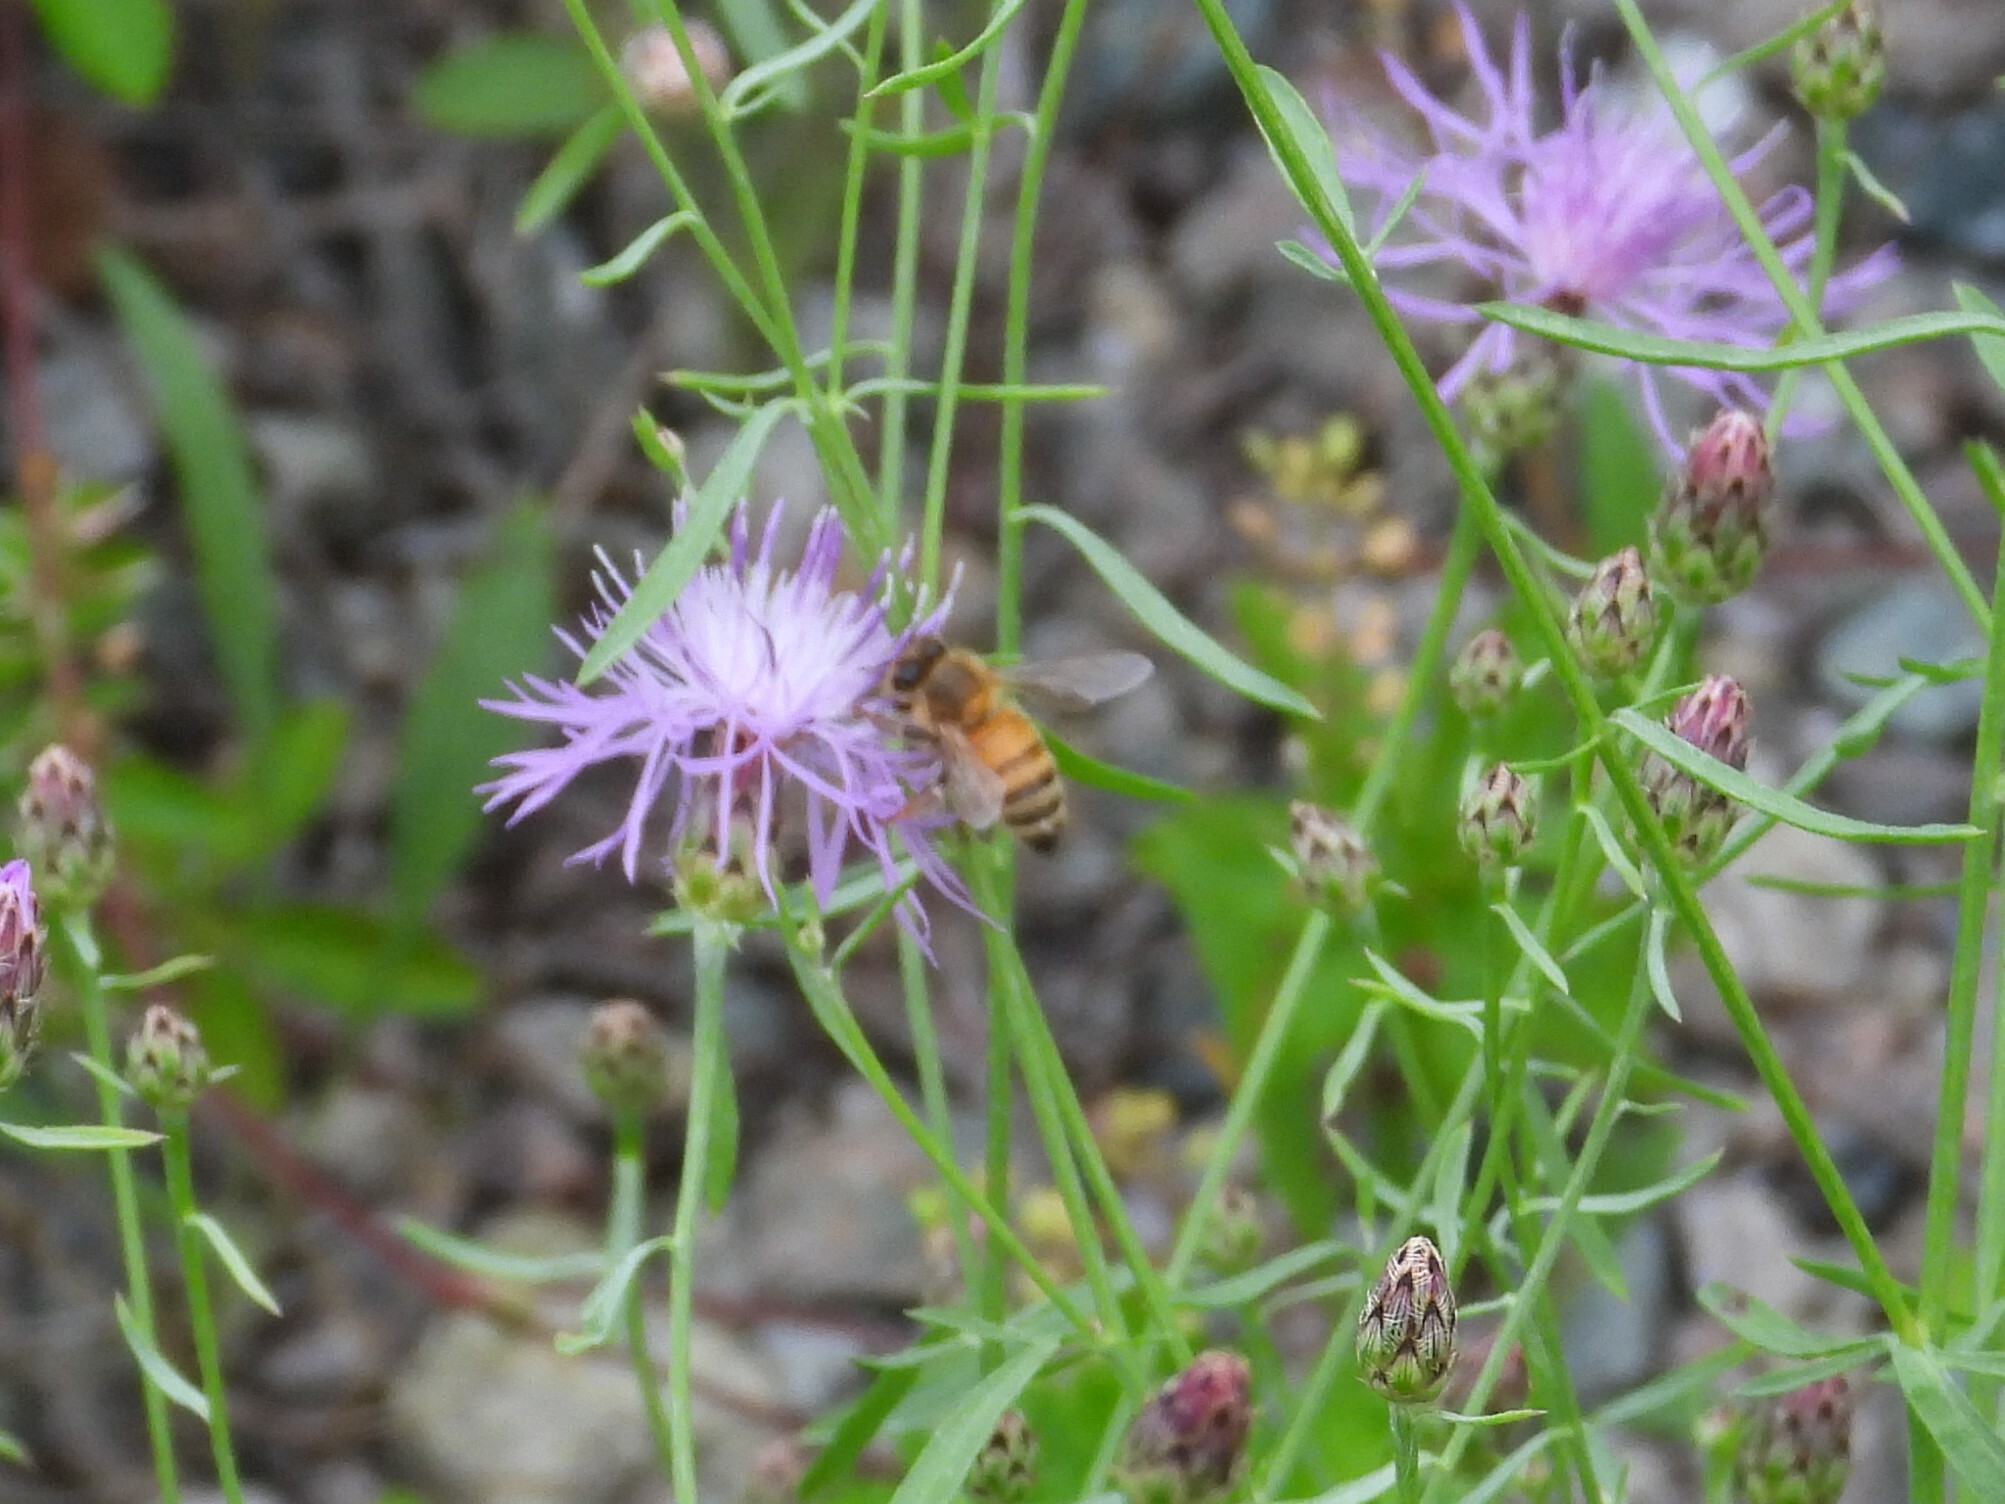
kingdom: Animalia
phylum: Arthropoda
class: Insecta
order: Hymenoptera
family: Apidae
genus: Apis
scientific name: Apis mellifera
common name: Honey bee
